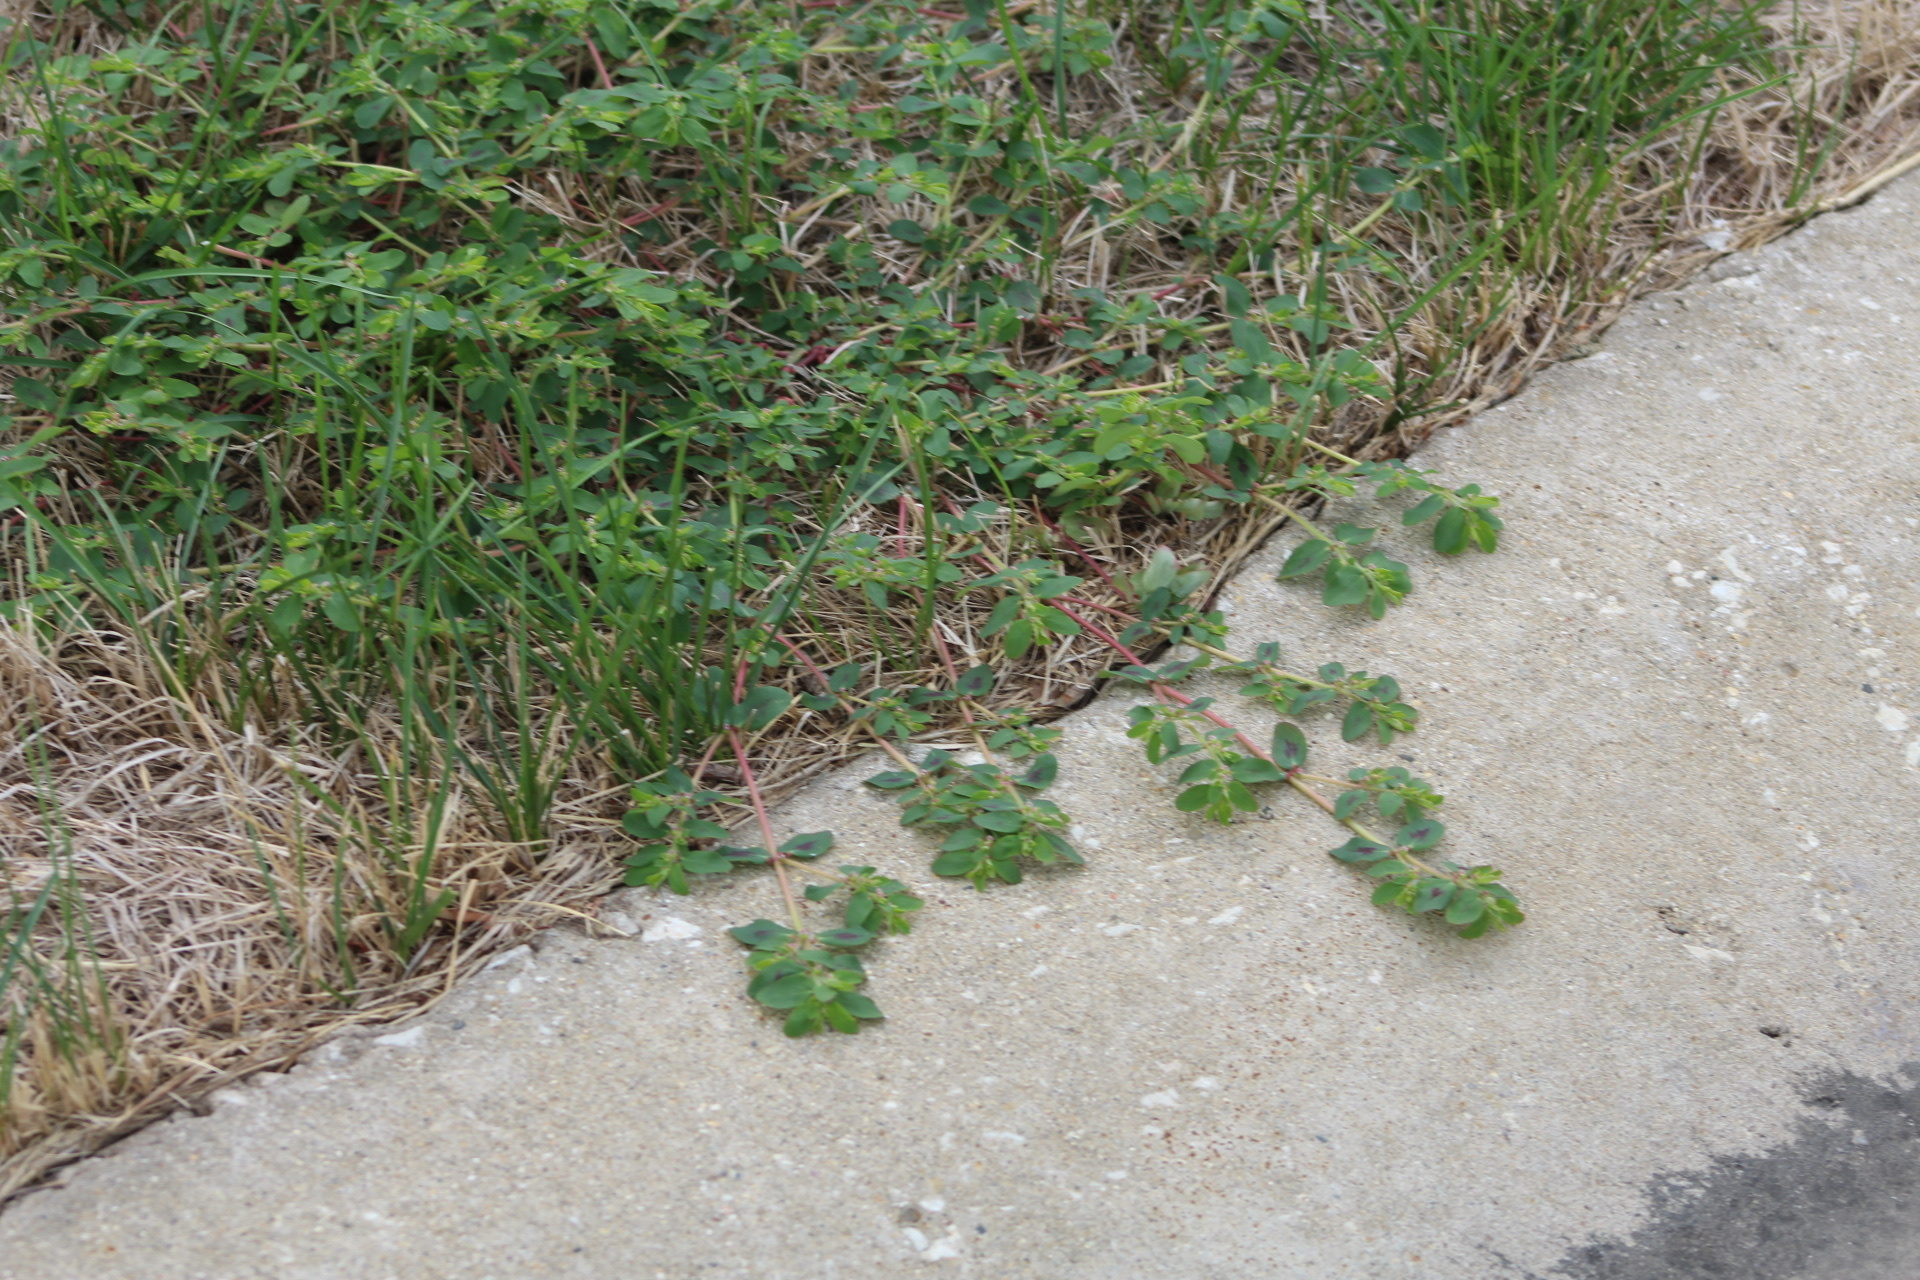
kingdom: Plantae
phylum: Tracheophyta
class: Magnoliopsida
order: Malpighiales
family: Euphorbiaceae
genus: Euphorbia
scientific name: Euphorbia maculata
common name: Spotted spurge
